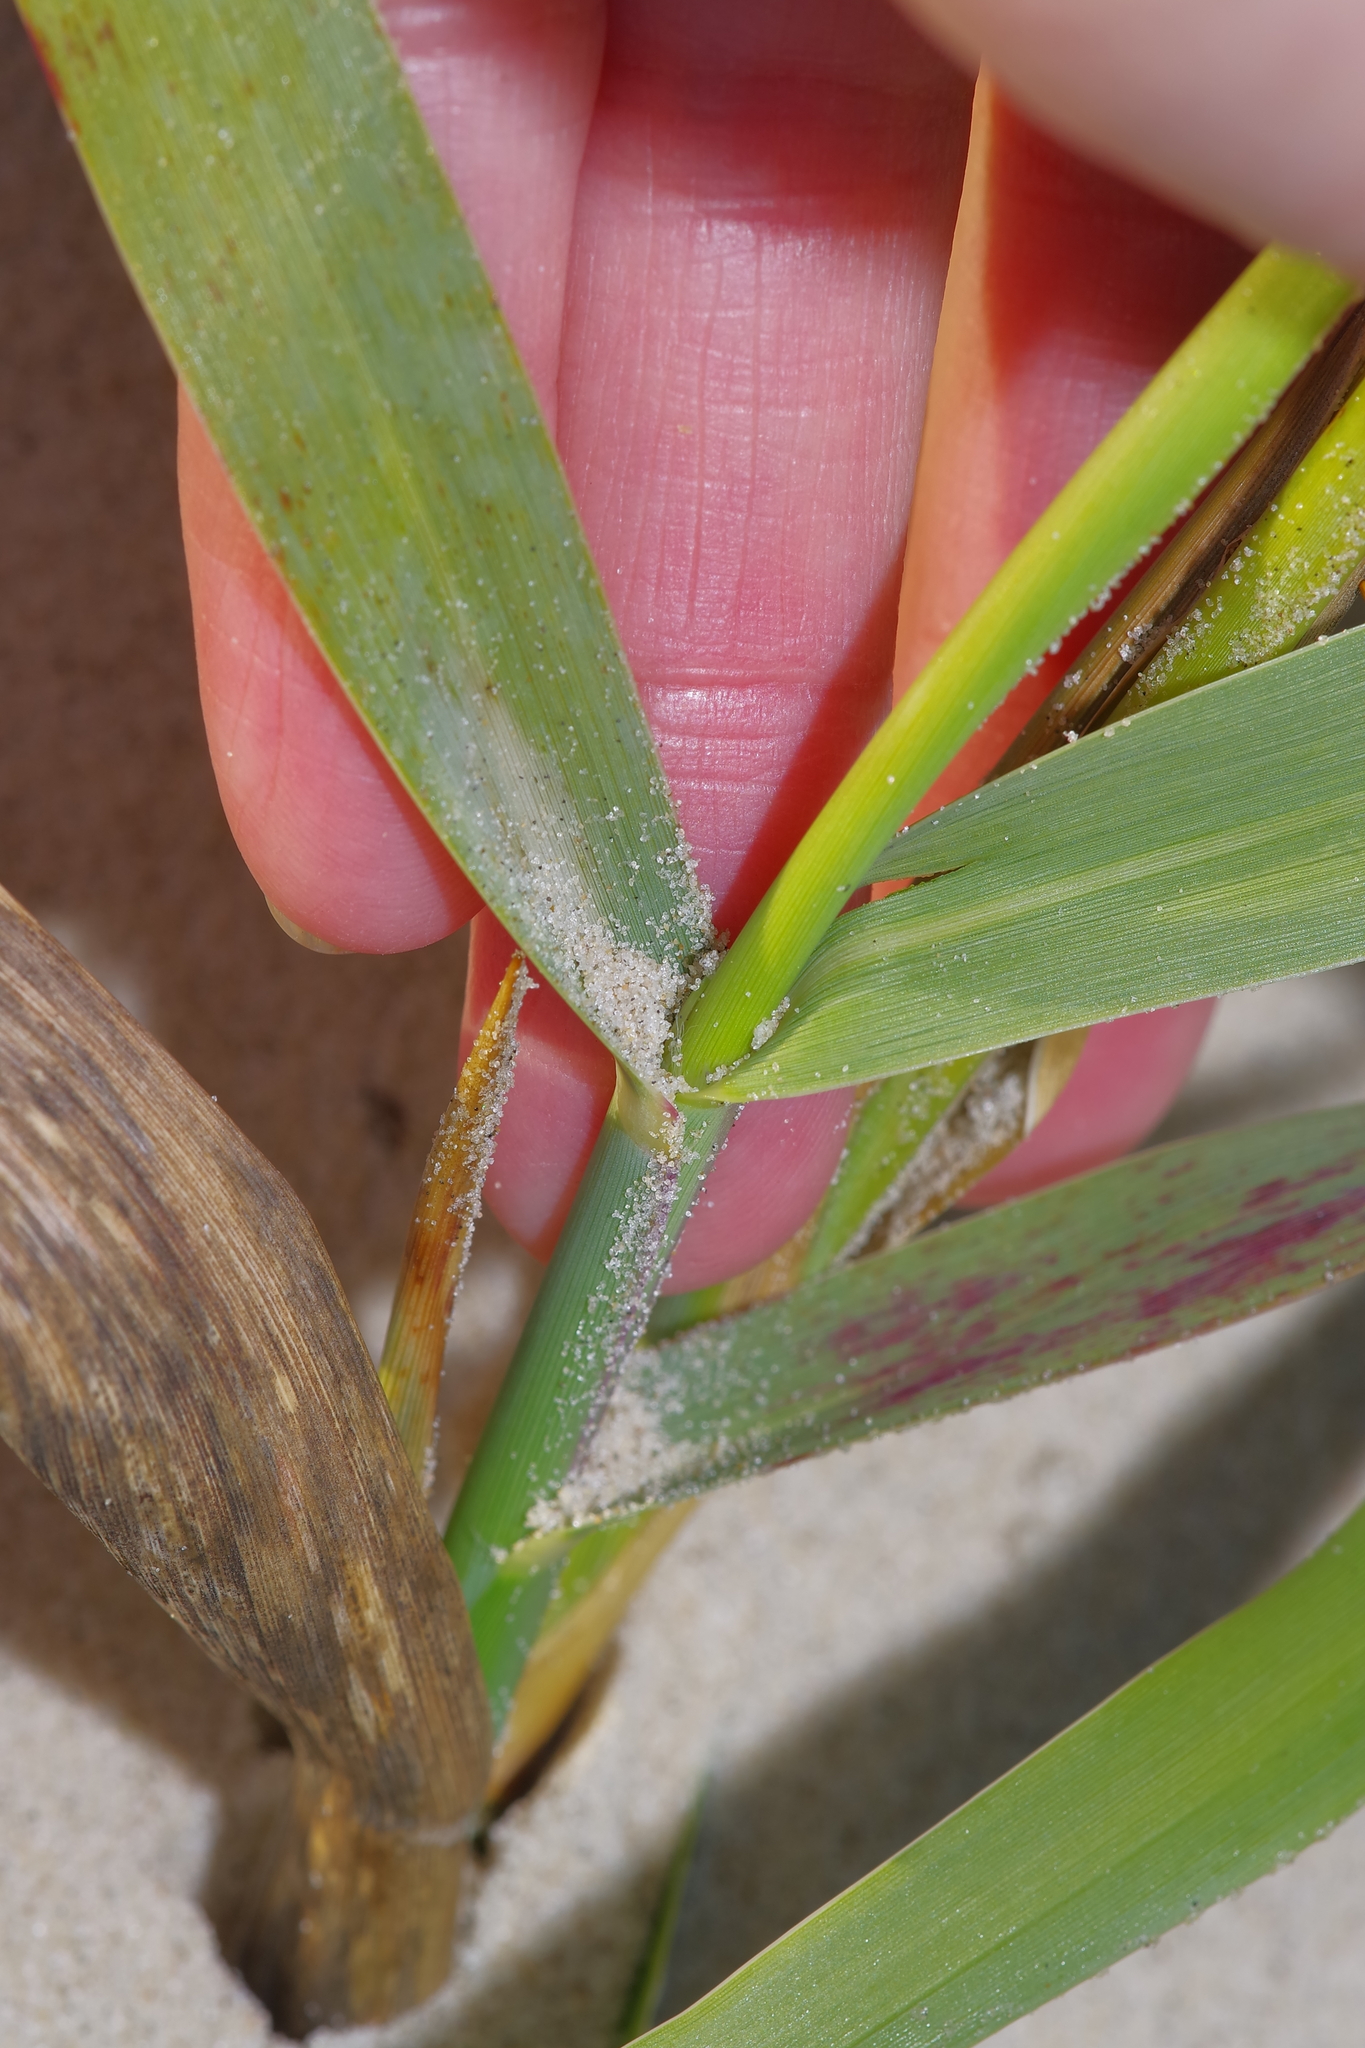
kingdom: Plantae
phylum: Tracheophyta
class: Liliopsida
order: Poales
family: Poaceae
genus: Panicum
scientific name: Panicum amarum
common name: Bitter panicum
